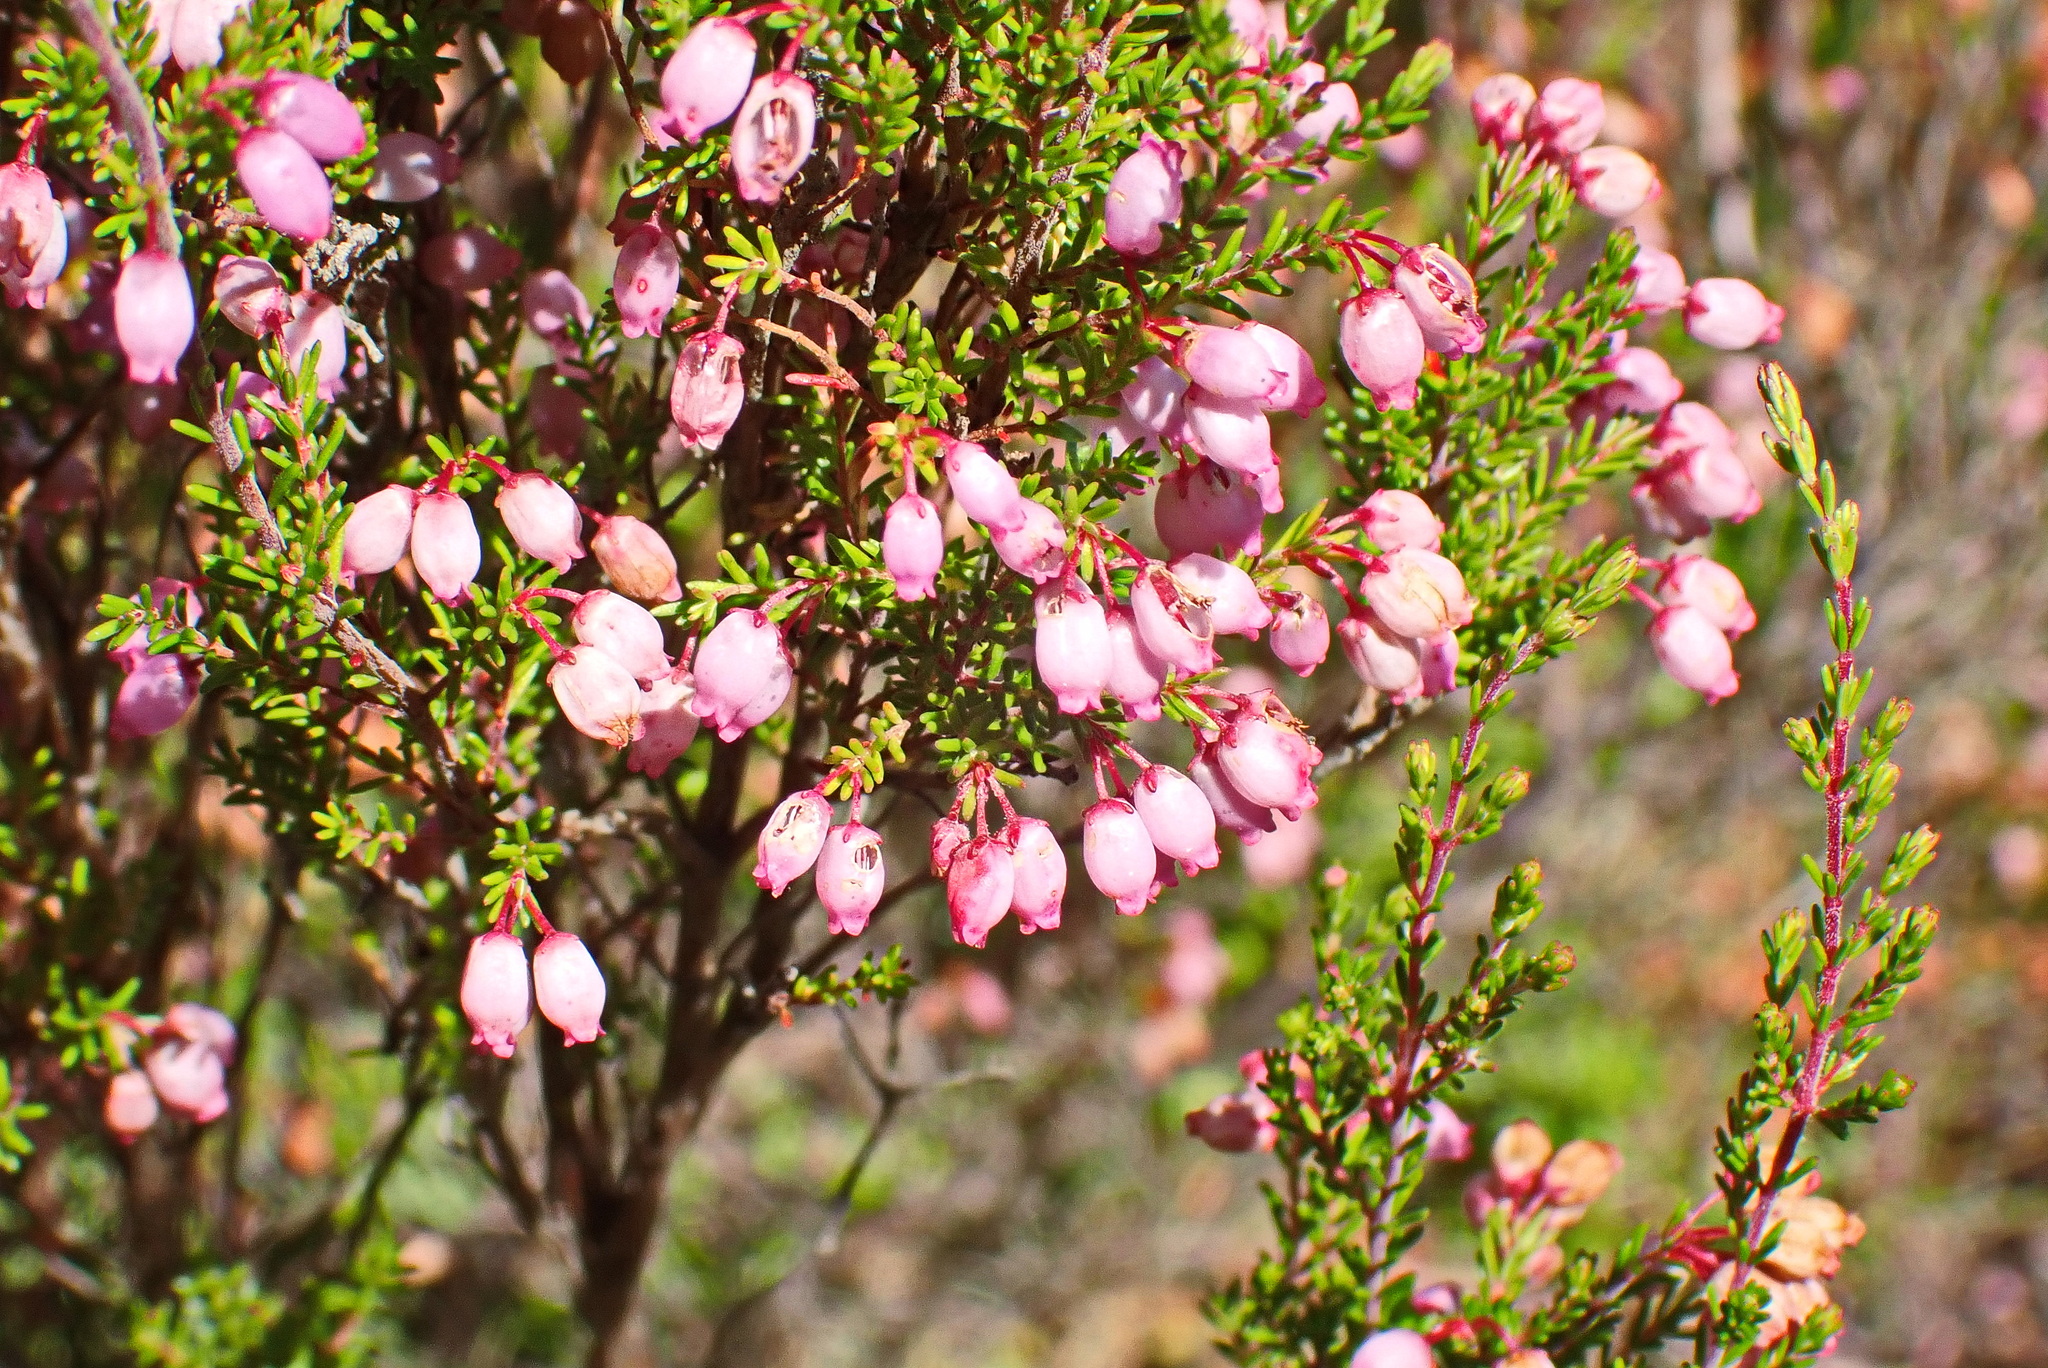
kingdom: Plantae
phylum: Tracheophyta
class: Magnoliopsida
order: Ericales
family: Ericaceae
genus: Erica
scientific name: Erica gracilis
